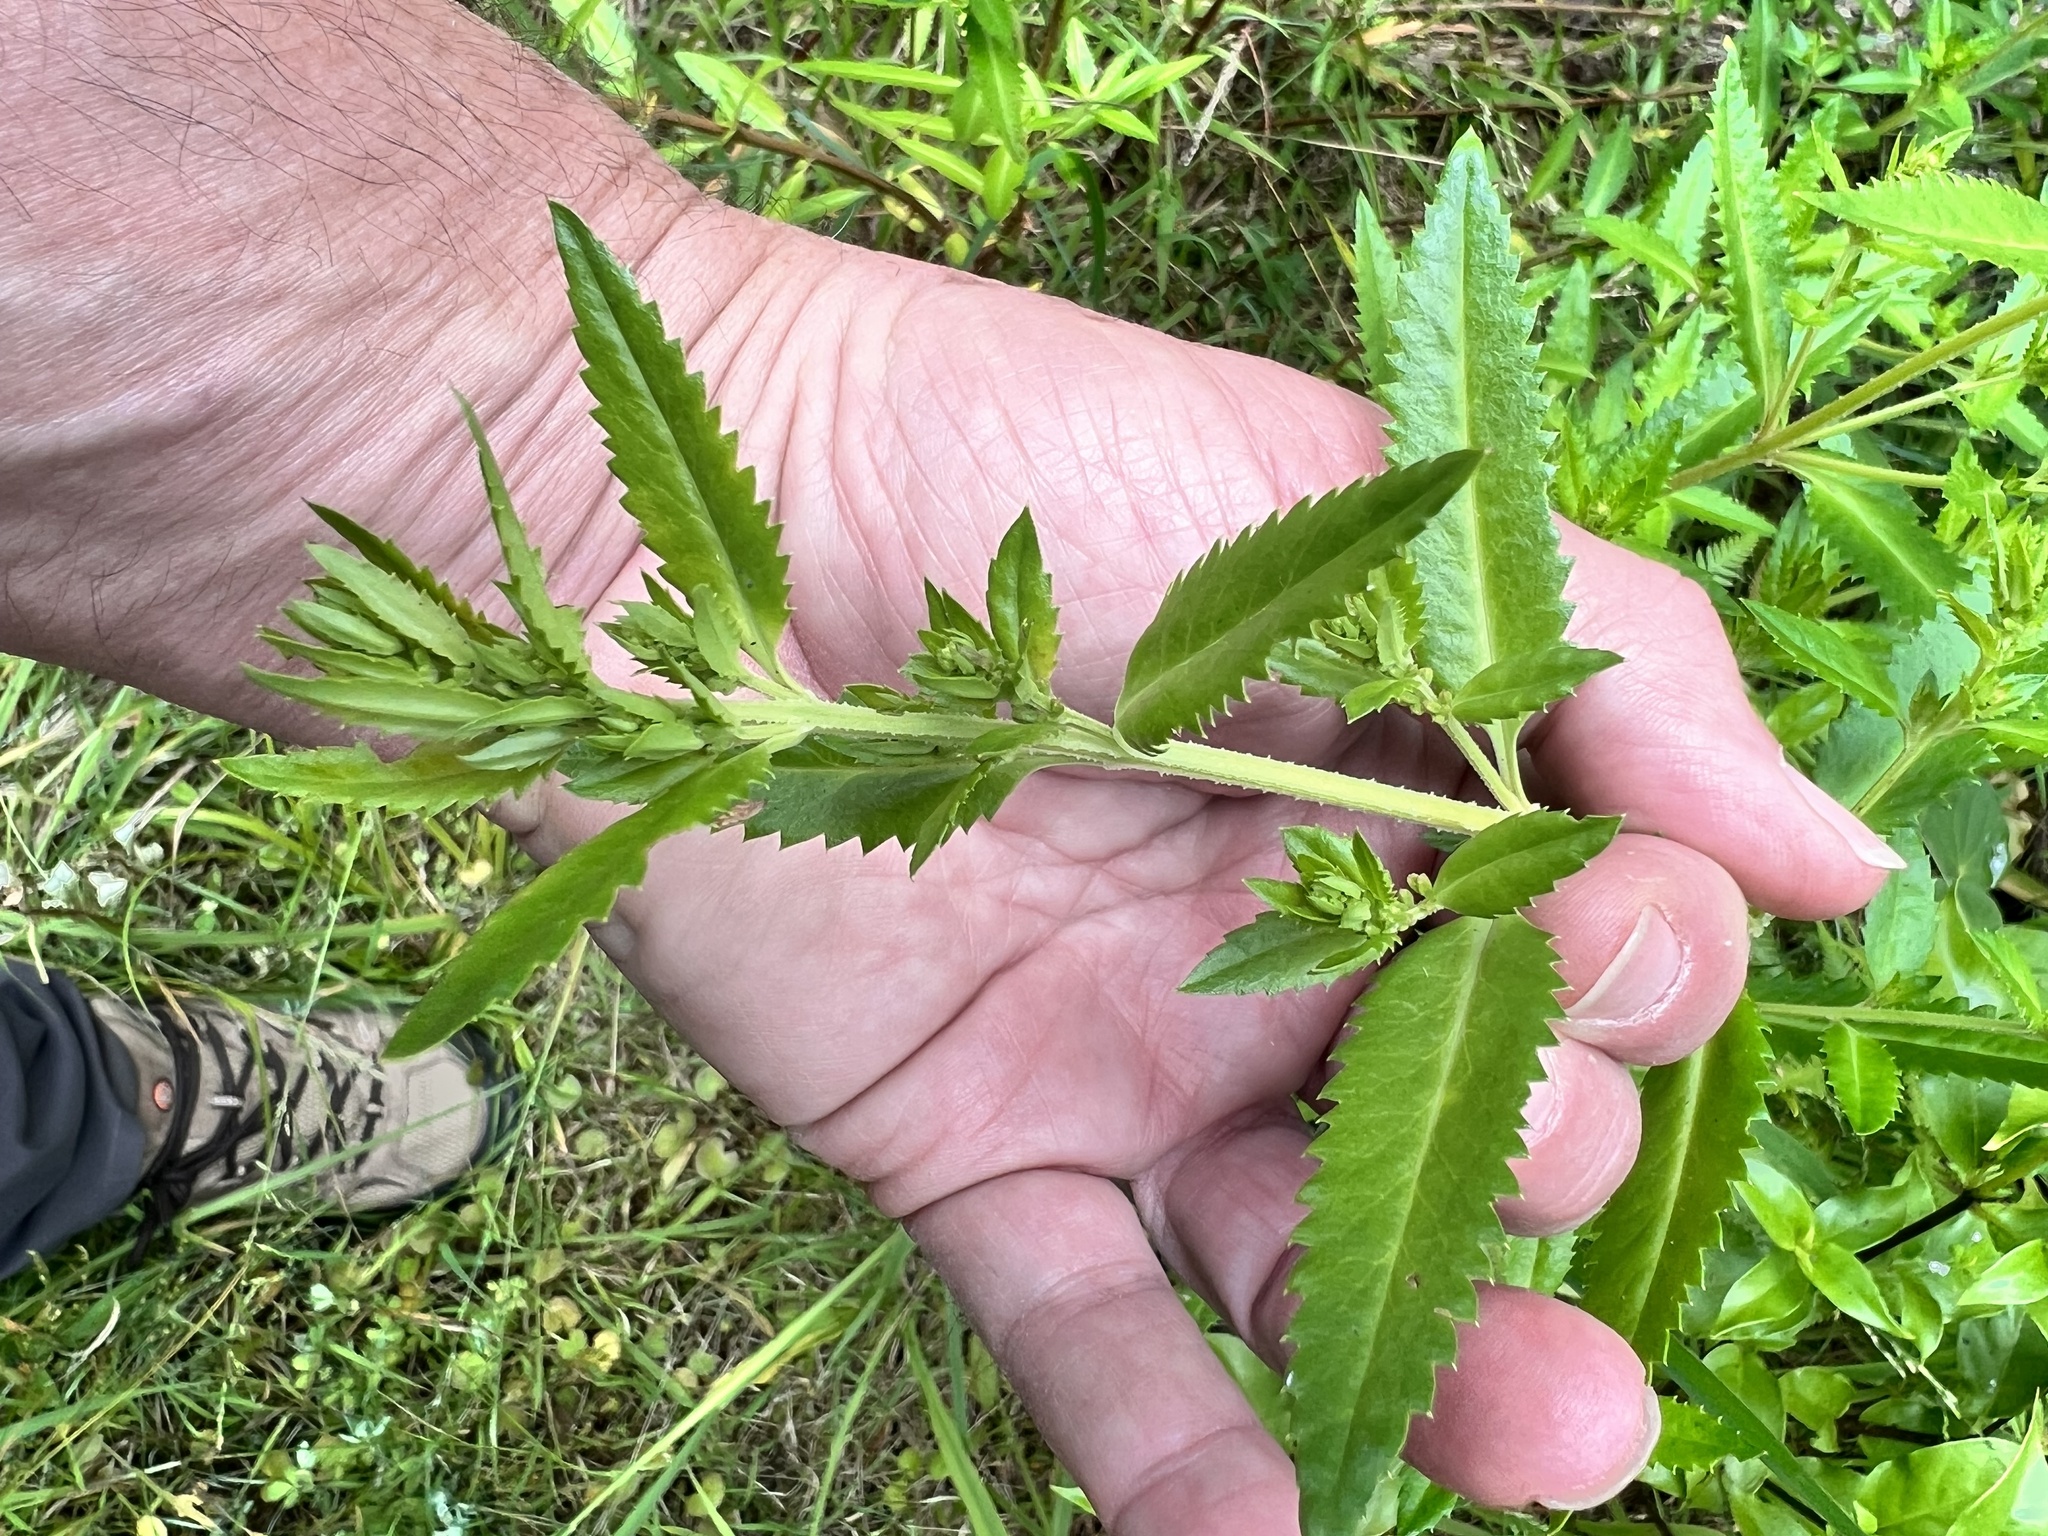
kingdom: Plantae
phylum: Tracheophyta
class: Magnoliopsida
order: Saxifragales
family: Haloragaceae
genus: Haloragis
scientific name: Haloragis erecta
